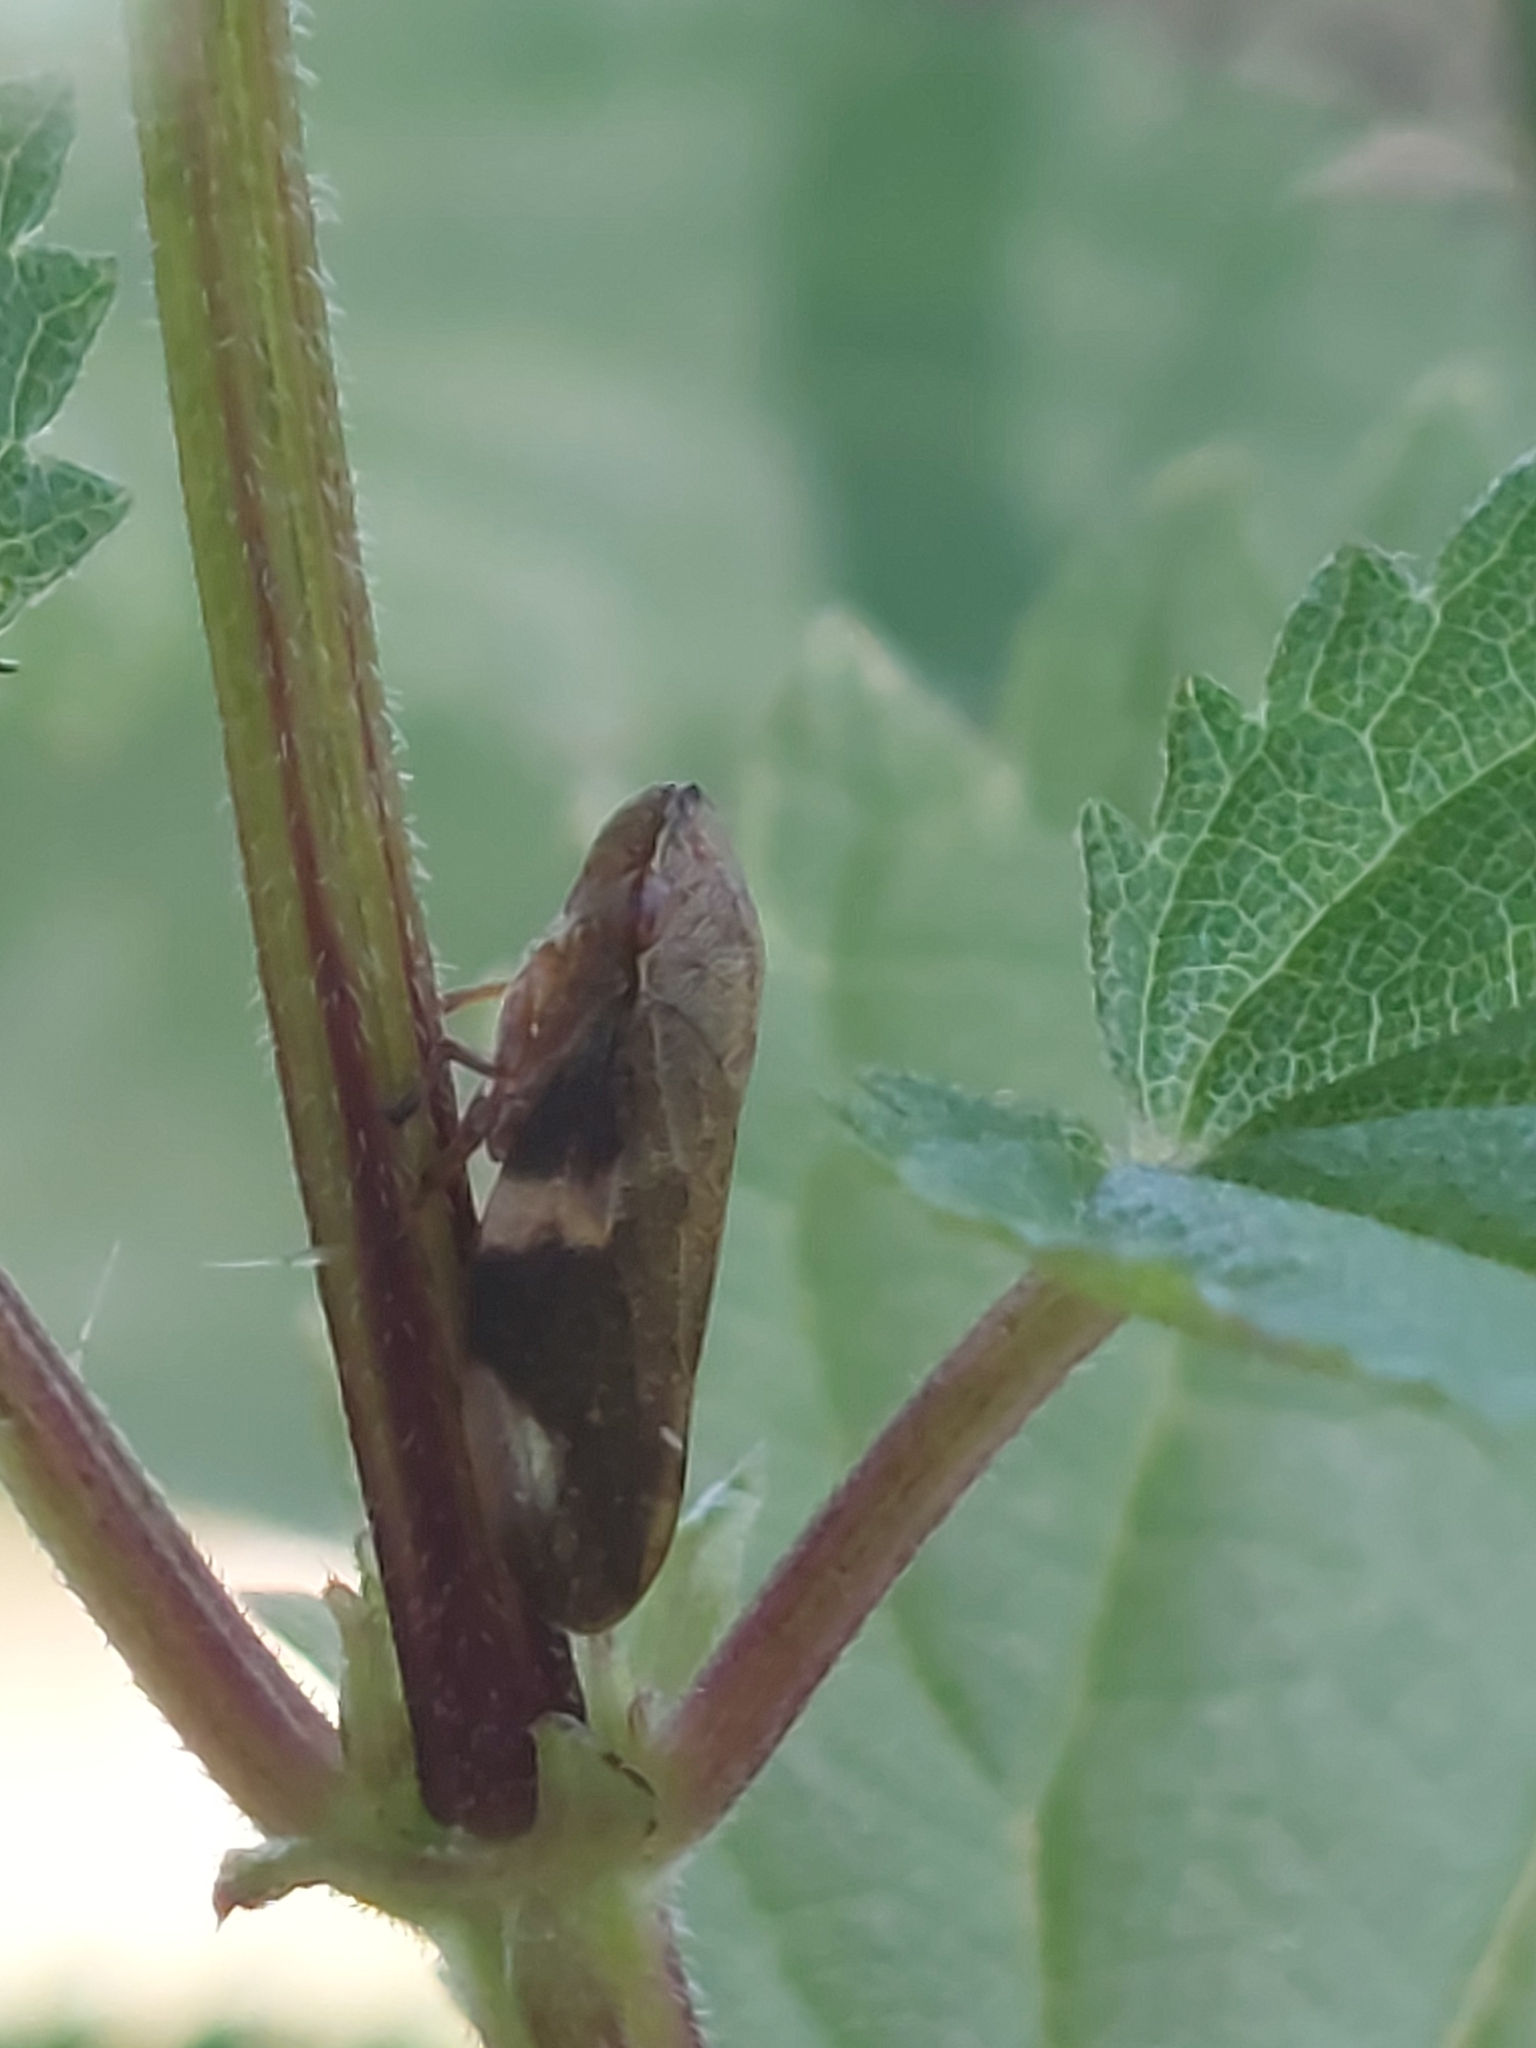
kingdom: Animalia
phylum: Arthropoda
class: Insecta
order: Hemiptera
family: Aphrophoridae
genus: Aphrophora
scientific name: Aphrophora alni
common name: European alder spittlebug
